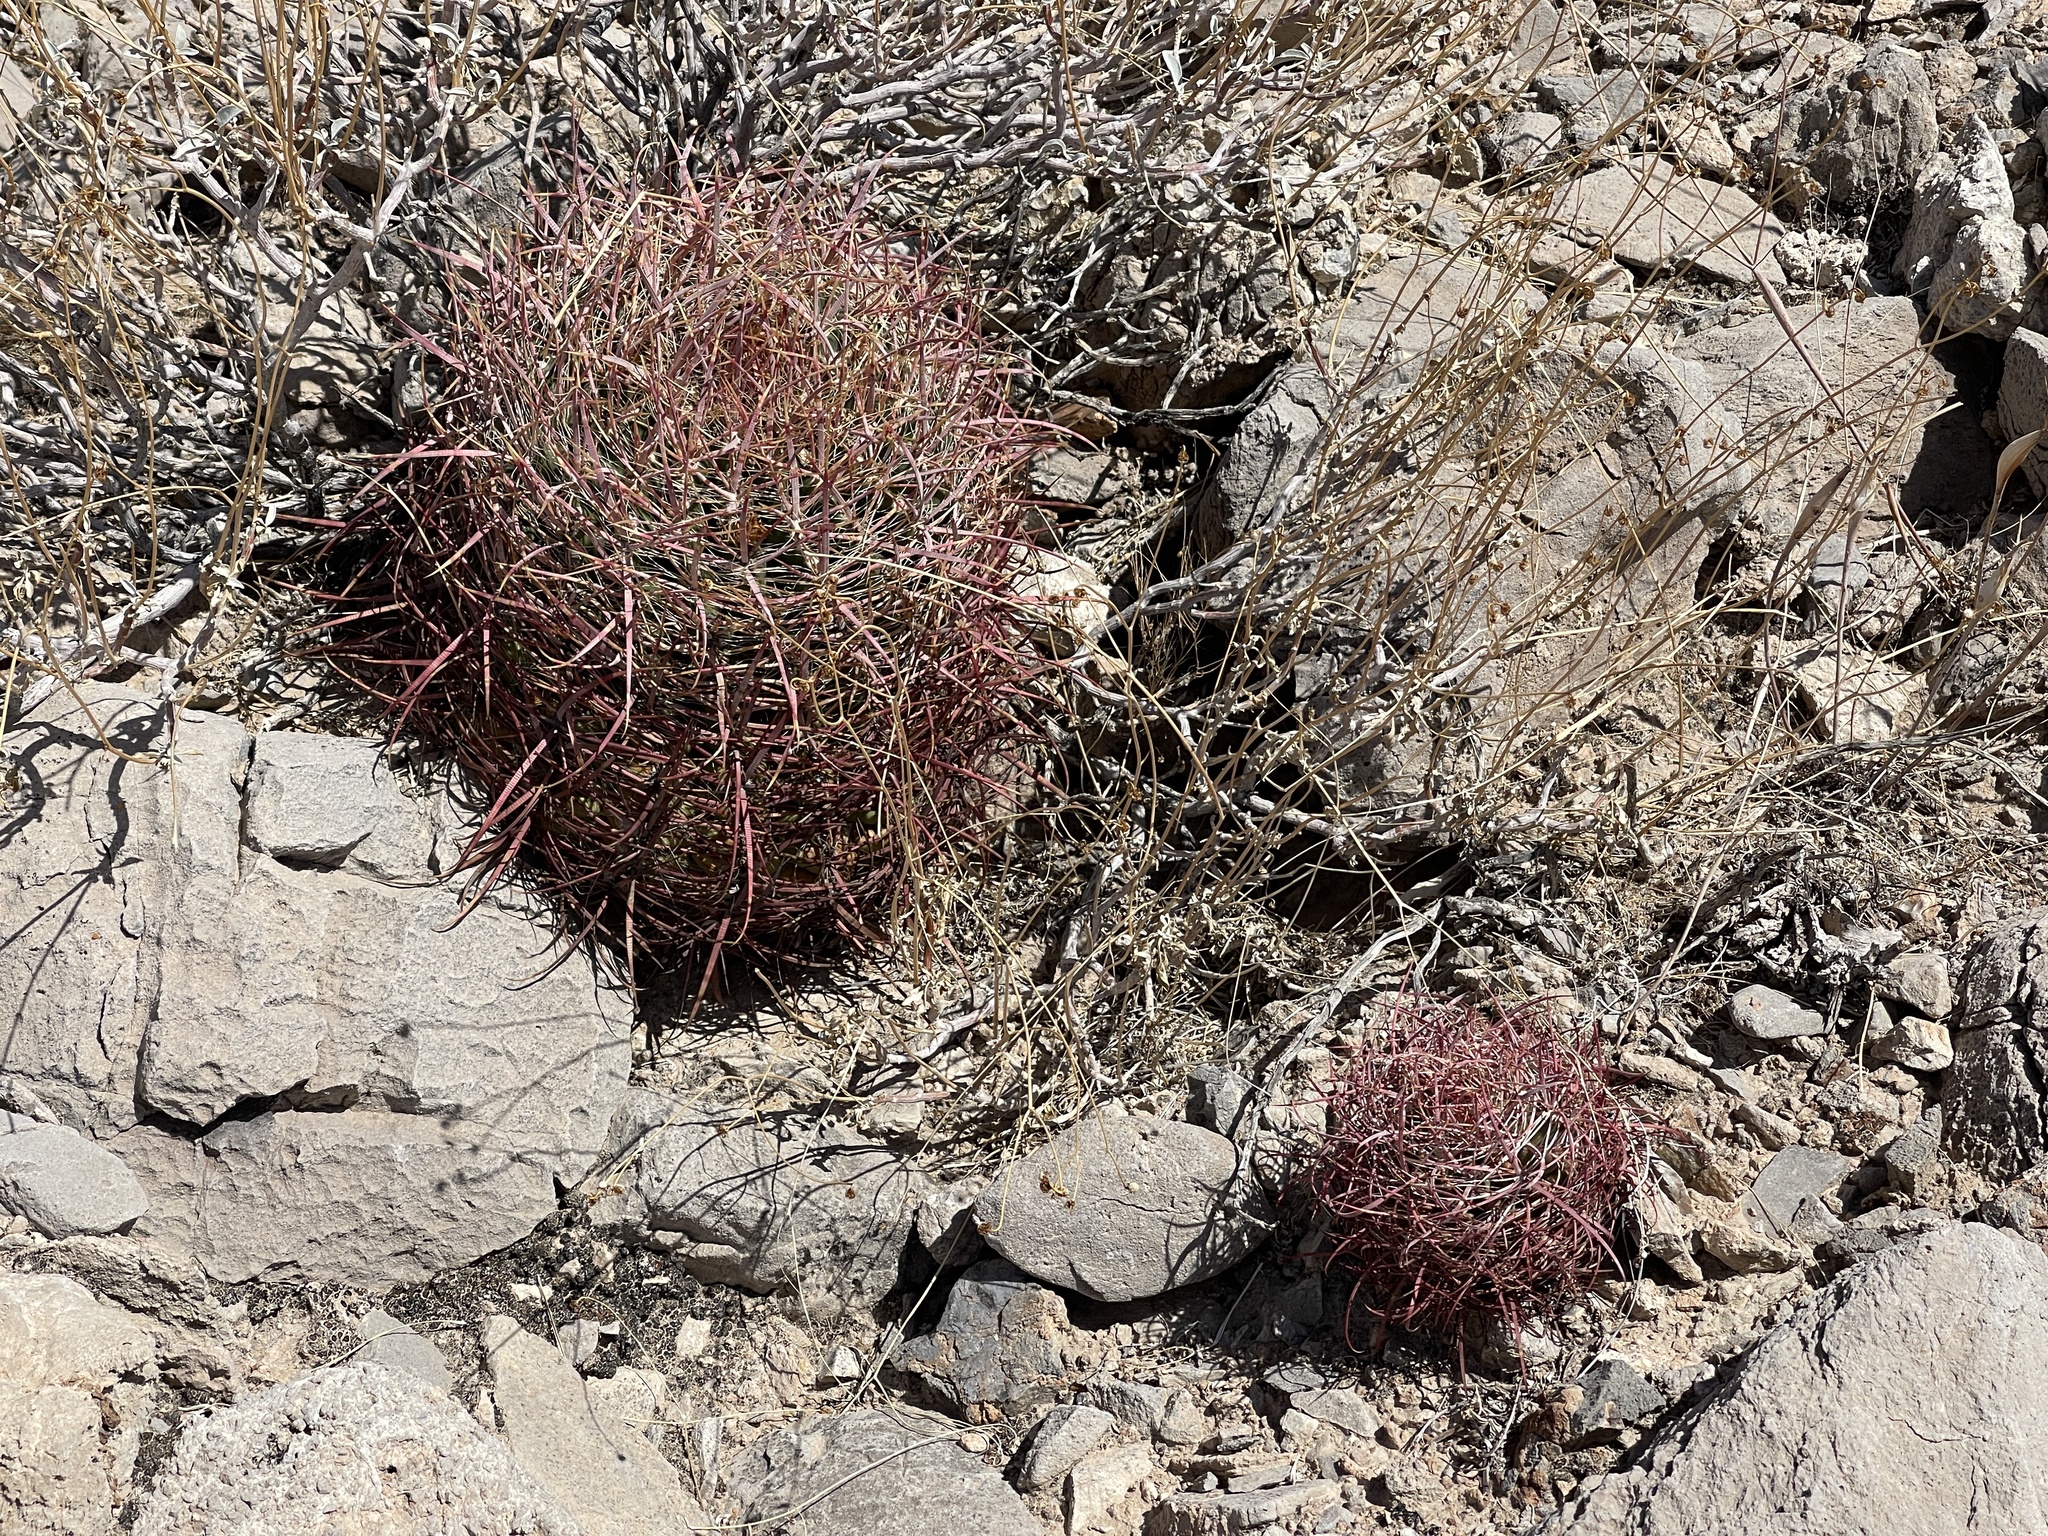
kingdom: Plantae
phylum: Tracheophyta
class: Magnoliopsida
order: Caryophyllales
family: Cactaceae
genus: Ferocactus
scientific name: Ferocactus cylindraceus
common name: California barrel cactus
